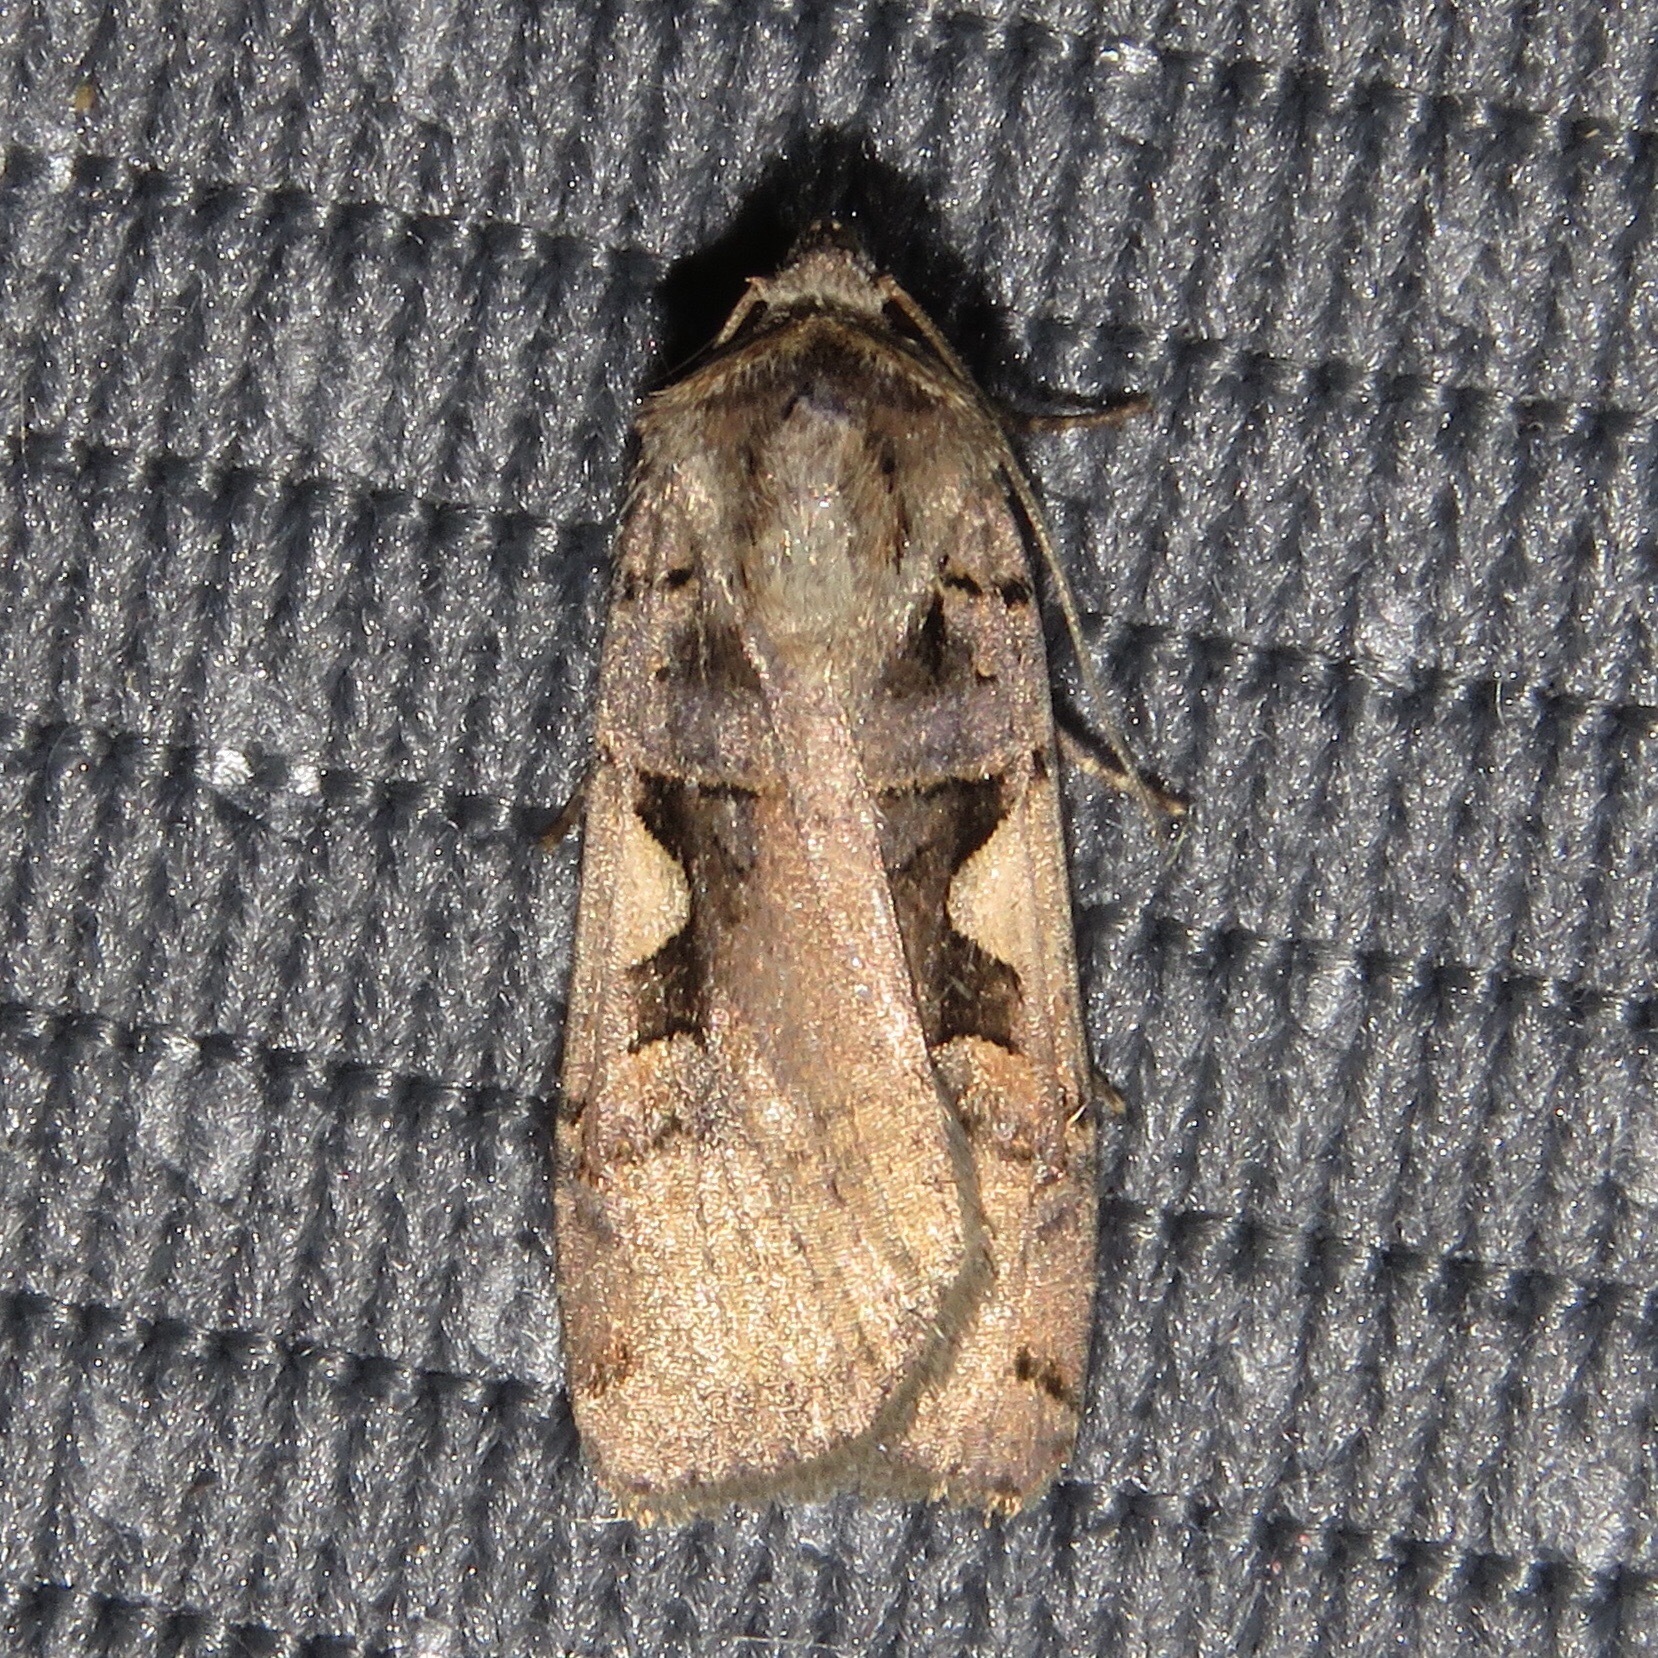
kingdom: Animalia
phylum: Arthropoda
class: Insecta
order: Lepidoptera
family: Noctuidae
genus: Xestia
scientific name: Xestia
